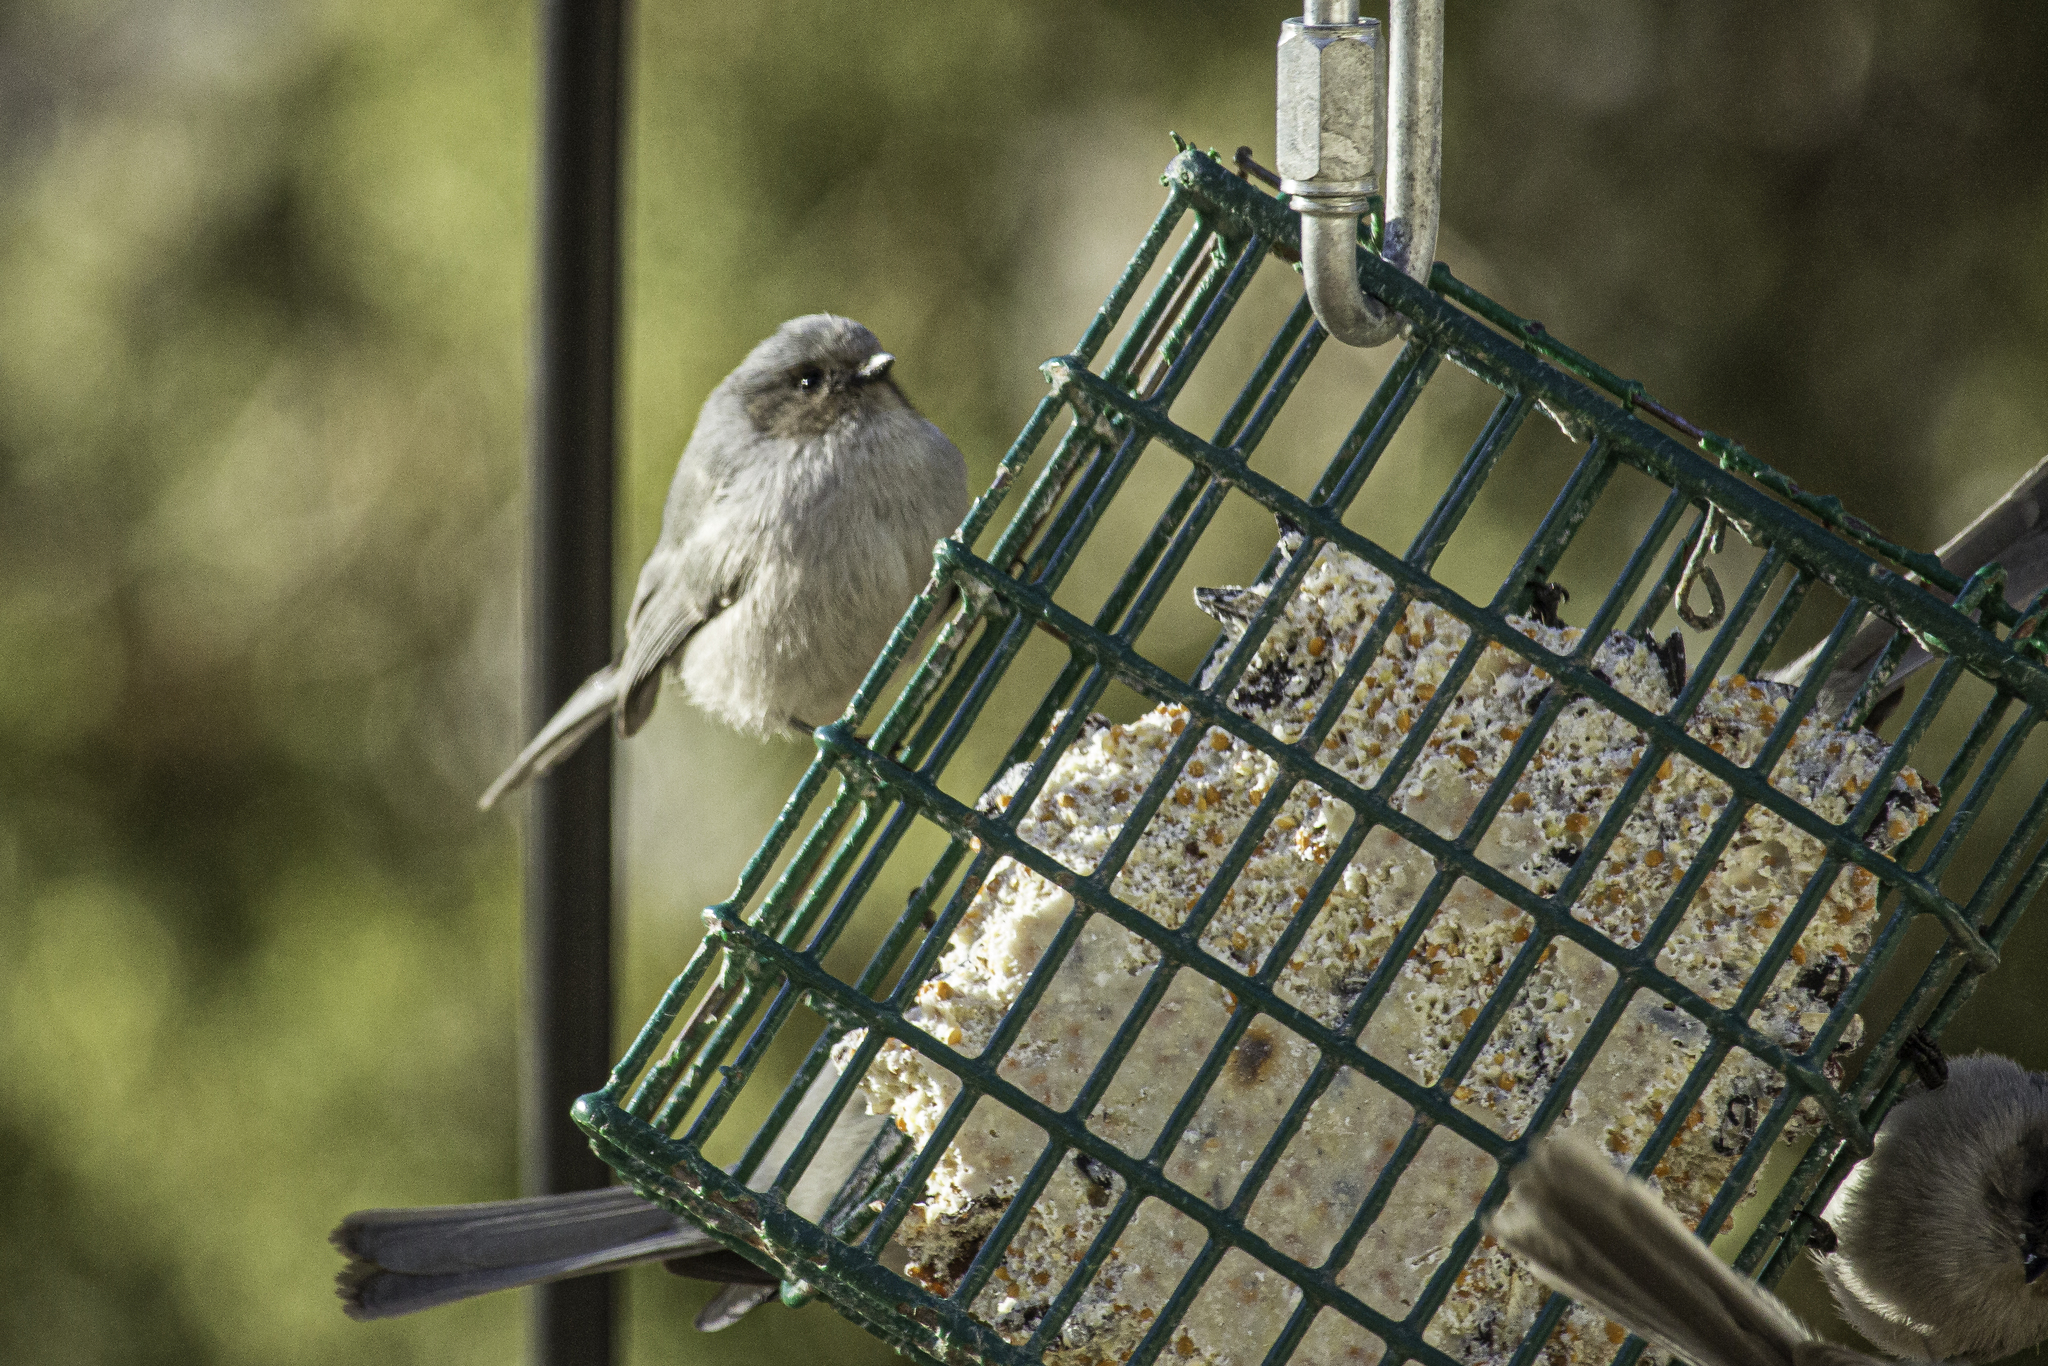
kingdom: Animalia
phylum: Chordata
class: Aves
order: Passeriformes
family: Aegithalidae
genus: Psaltriparus
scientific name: Psaltriparus minimus
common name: American bushtit
